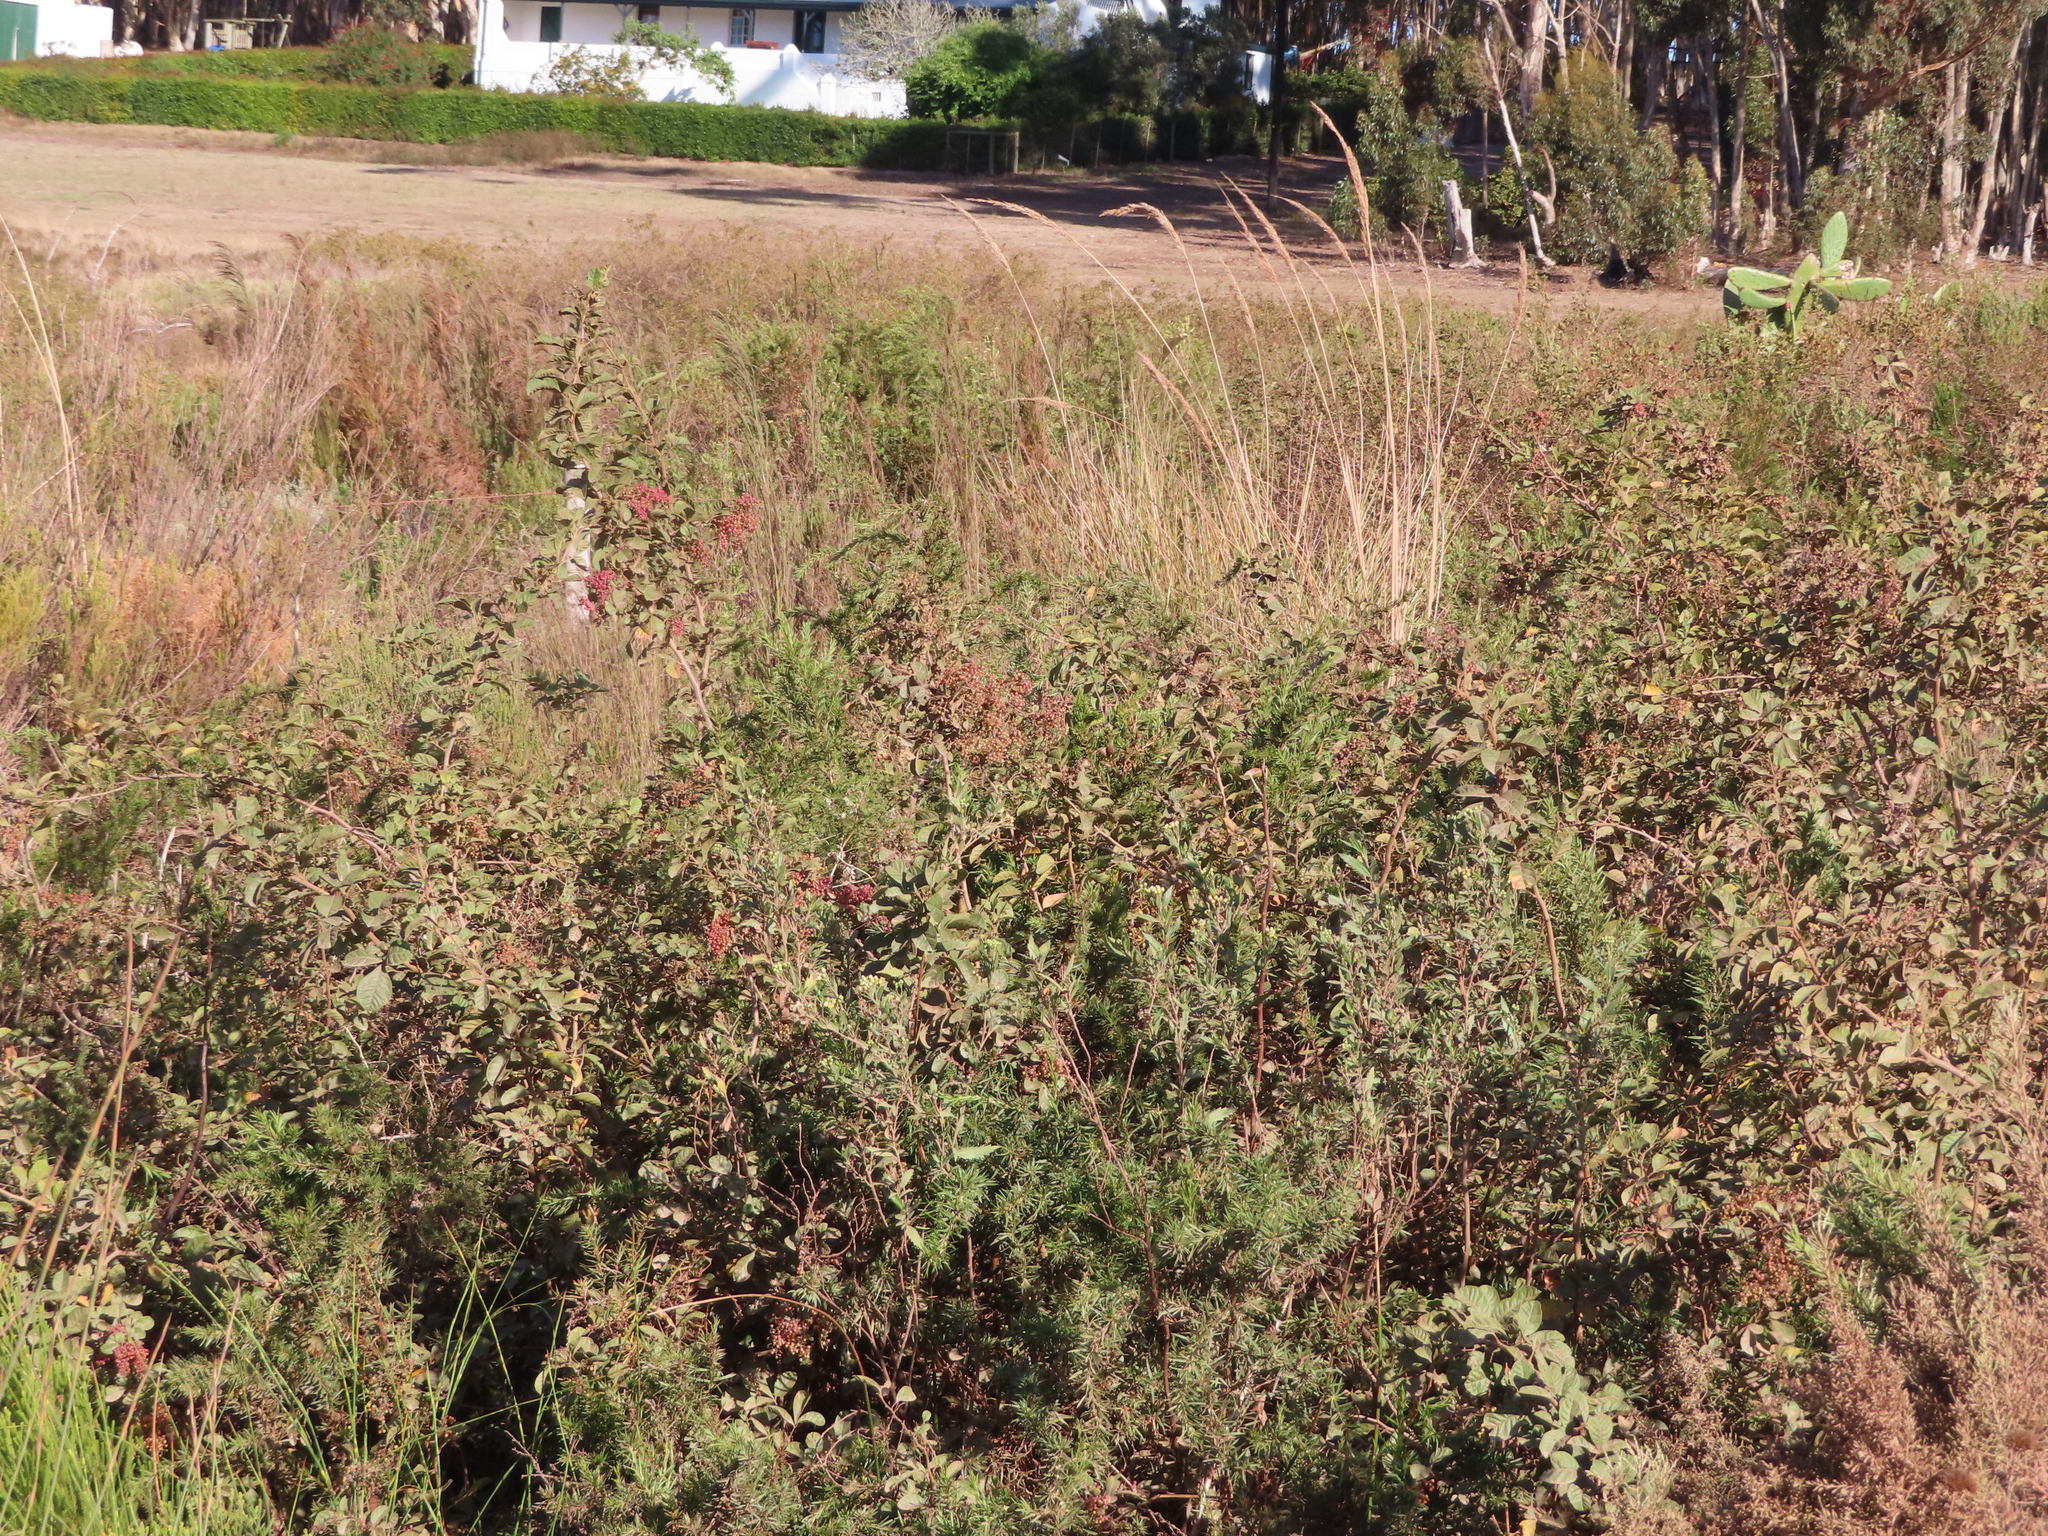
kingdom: Plantae
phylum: Tracheophyta
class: Magnoliopsida
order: Sapindales
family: Anacardiaceae
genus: Searsia
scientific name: Searsia laevigata
